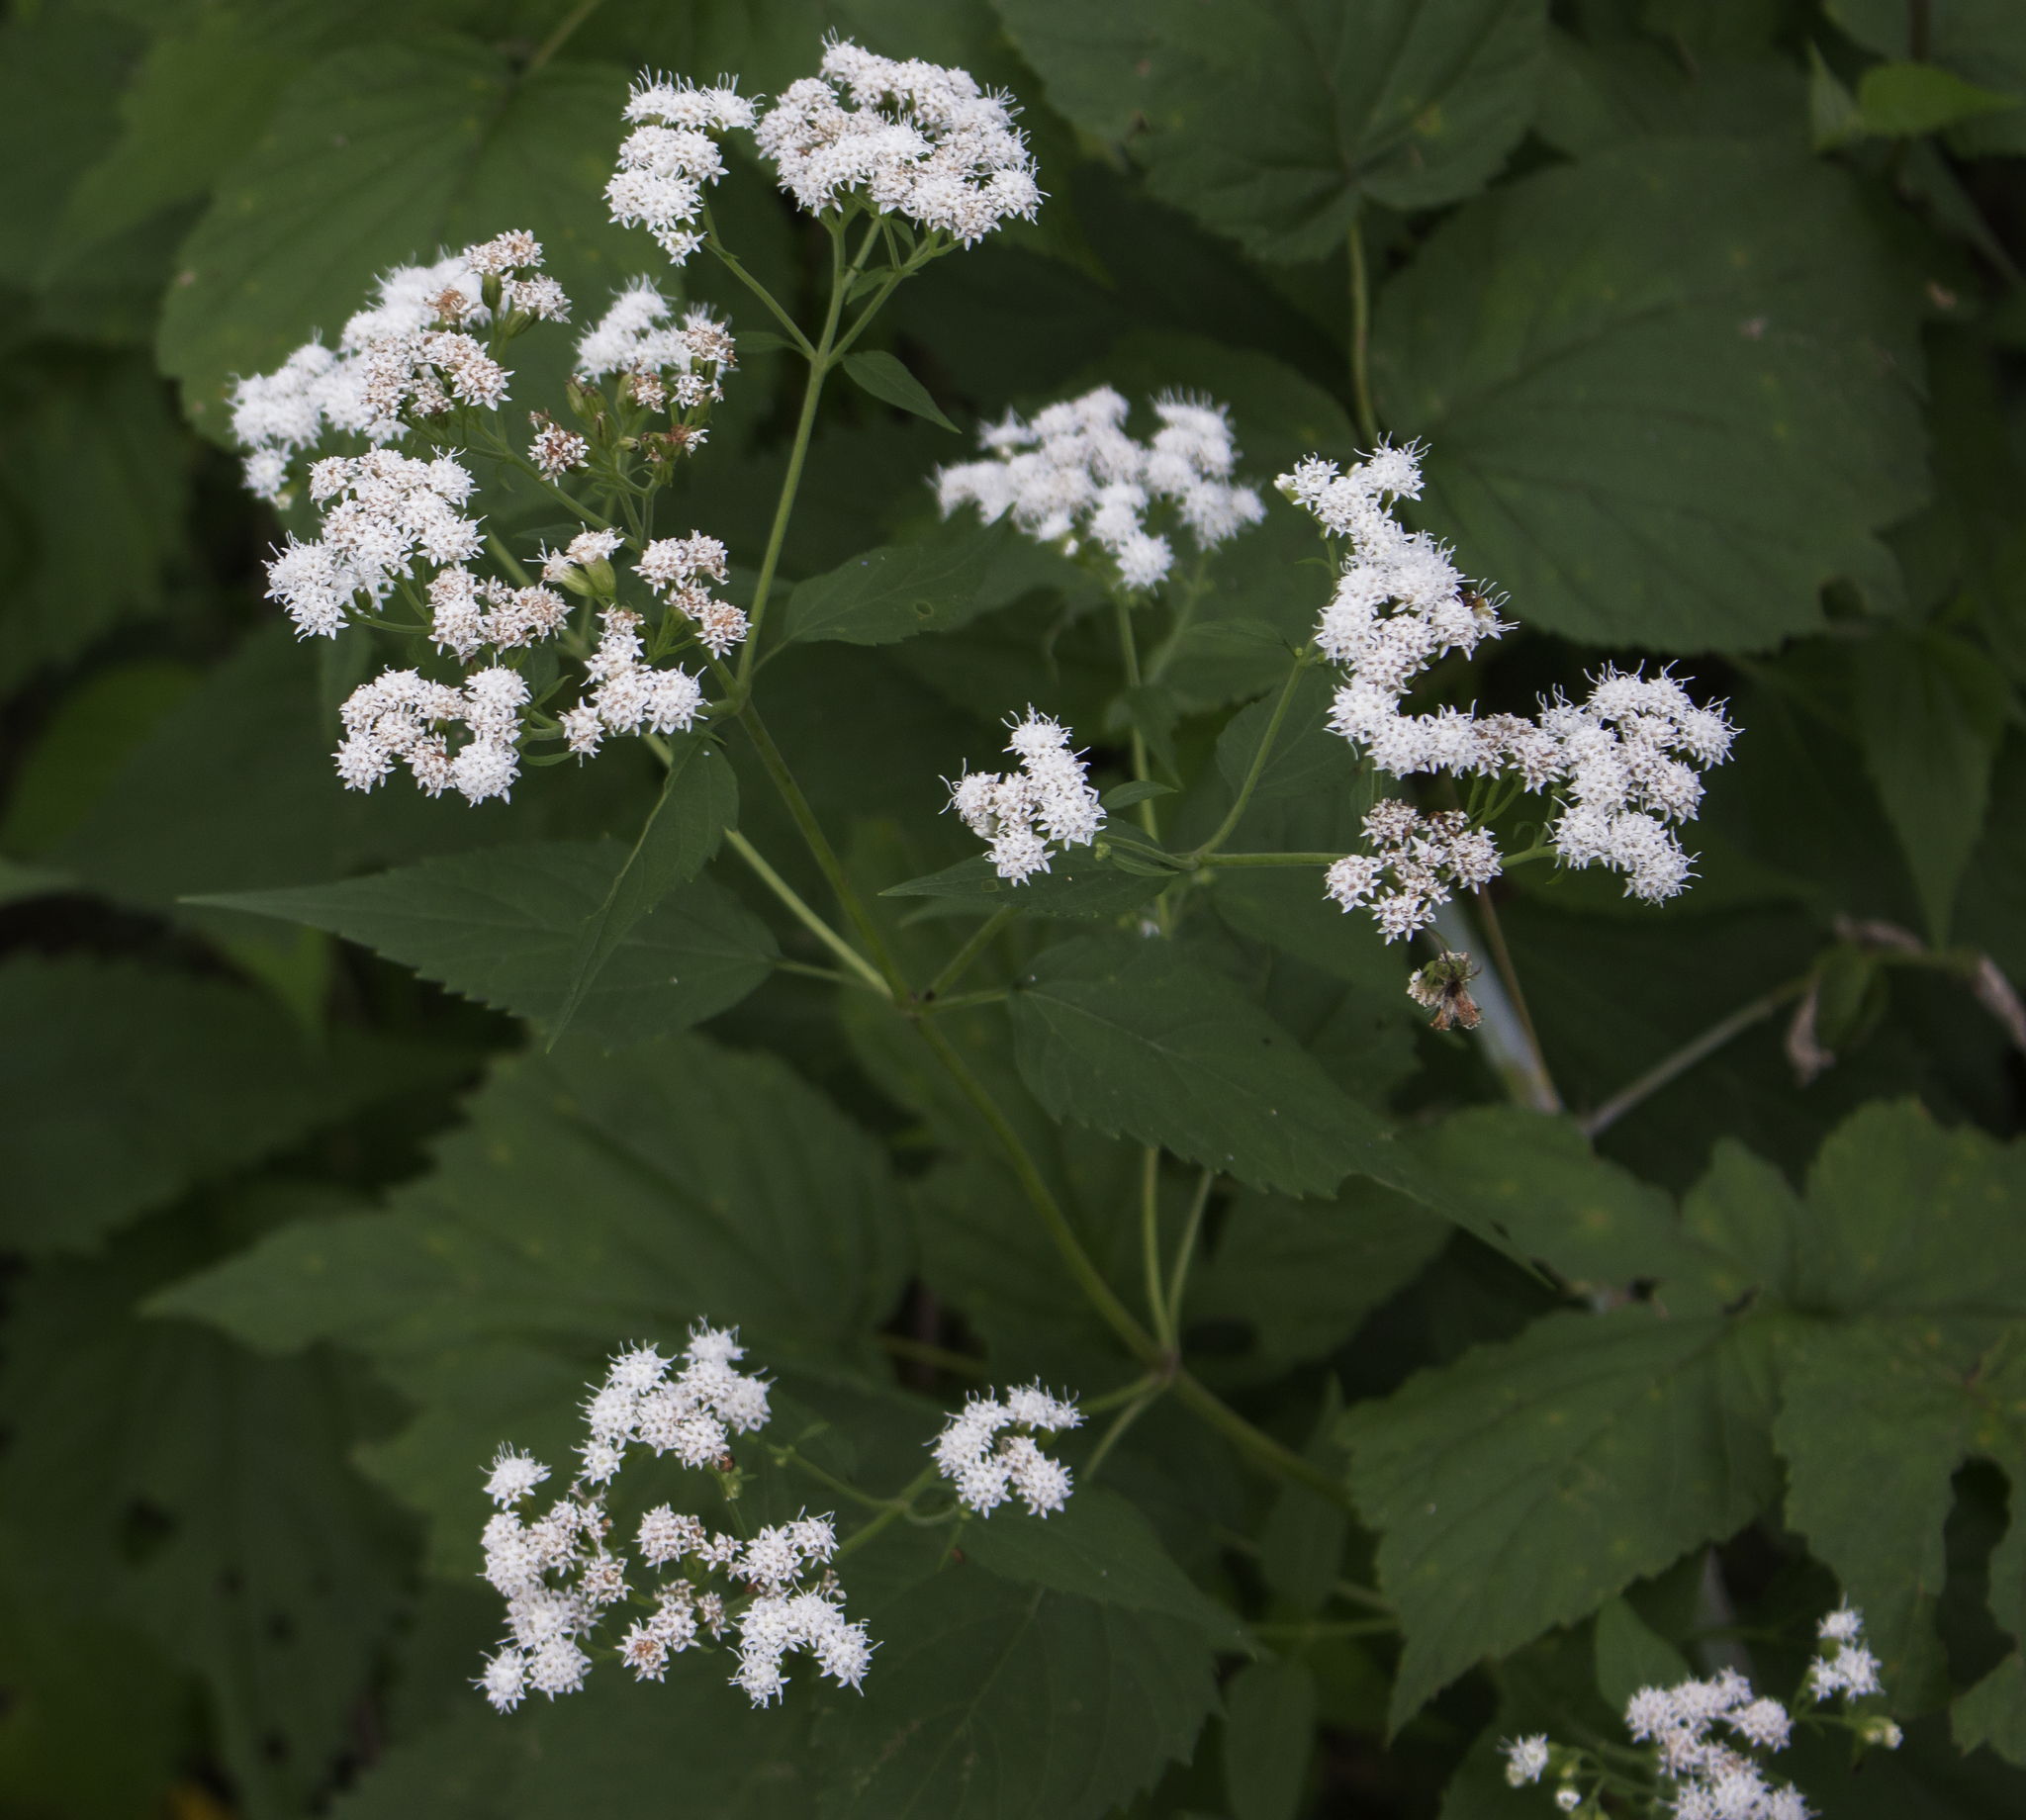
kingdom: Plantae
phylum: Tracheophyta
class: Magnoliopsida
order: Asterales
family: Asteraceae
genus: Ageratina
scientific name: Ageratina altissima
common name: White snakeroot
